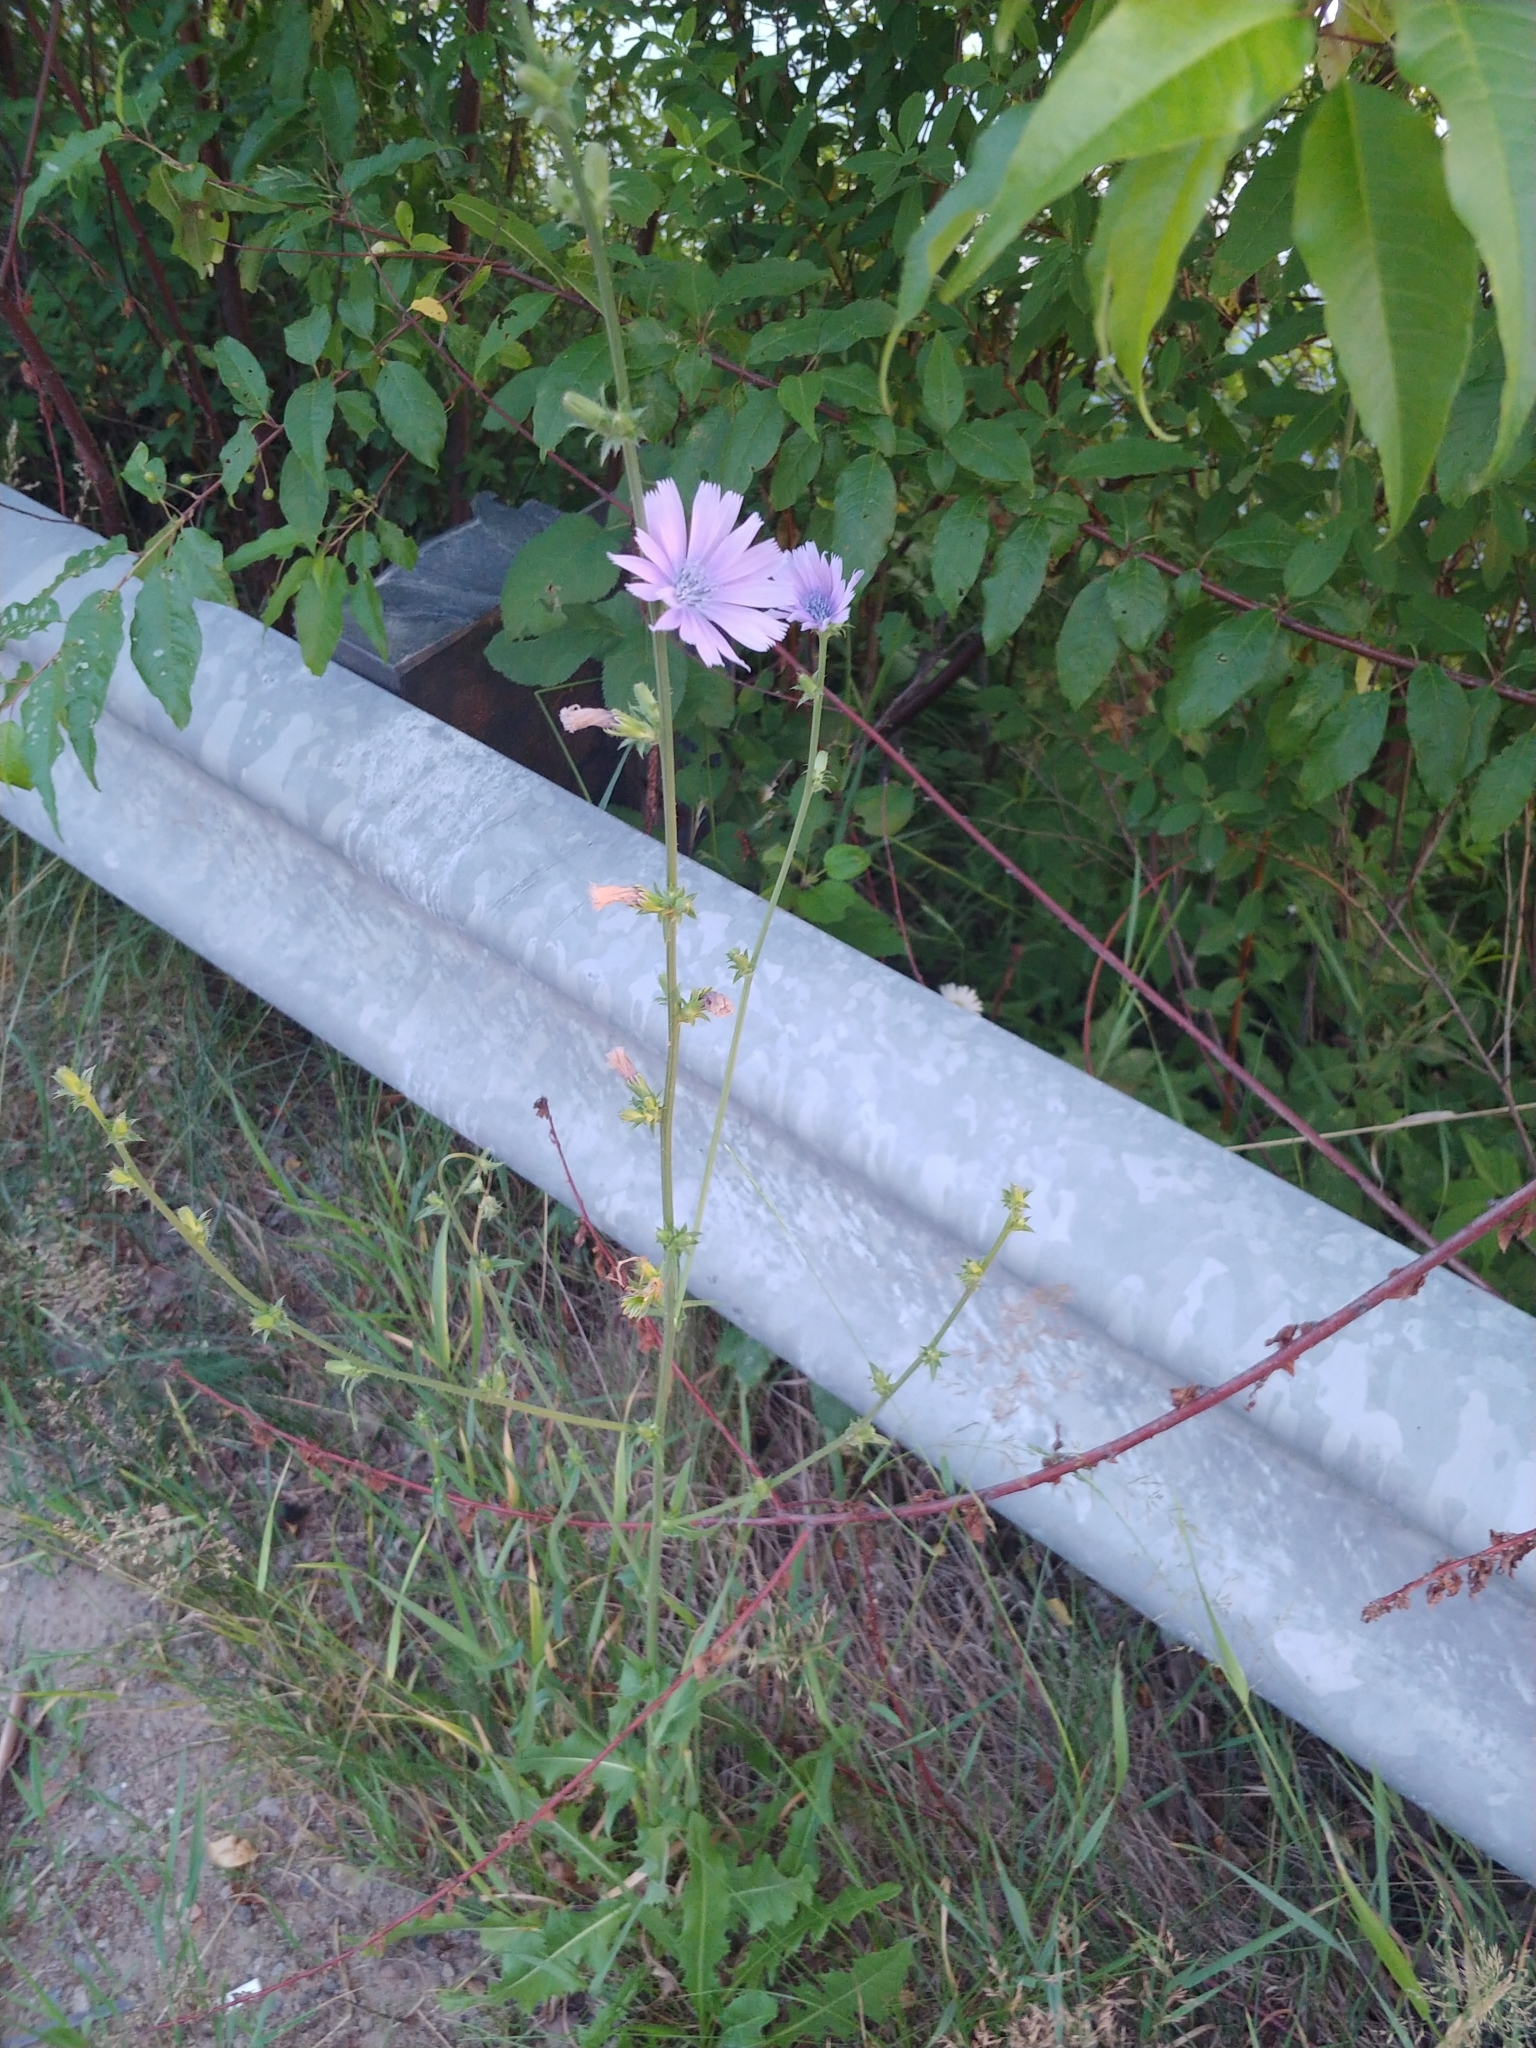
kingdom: Plantae
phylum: Tracheophyta
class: Magnoliopsida
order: Asterales
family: Asteraceae
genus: Cichorium
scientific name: Cichorium intybus
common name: Chicory
